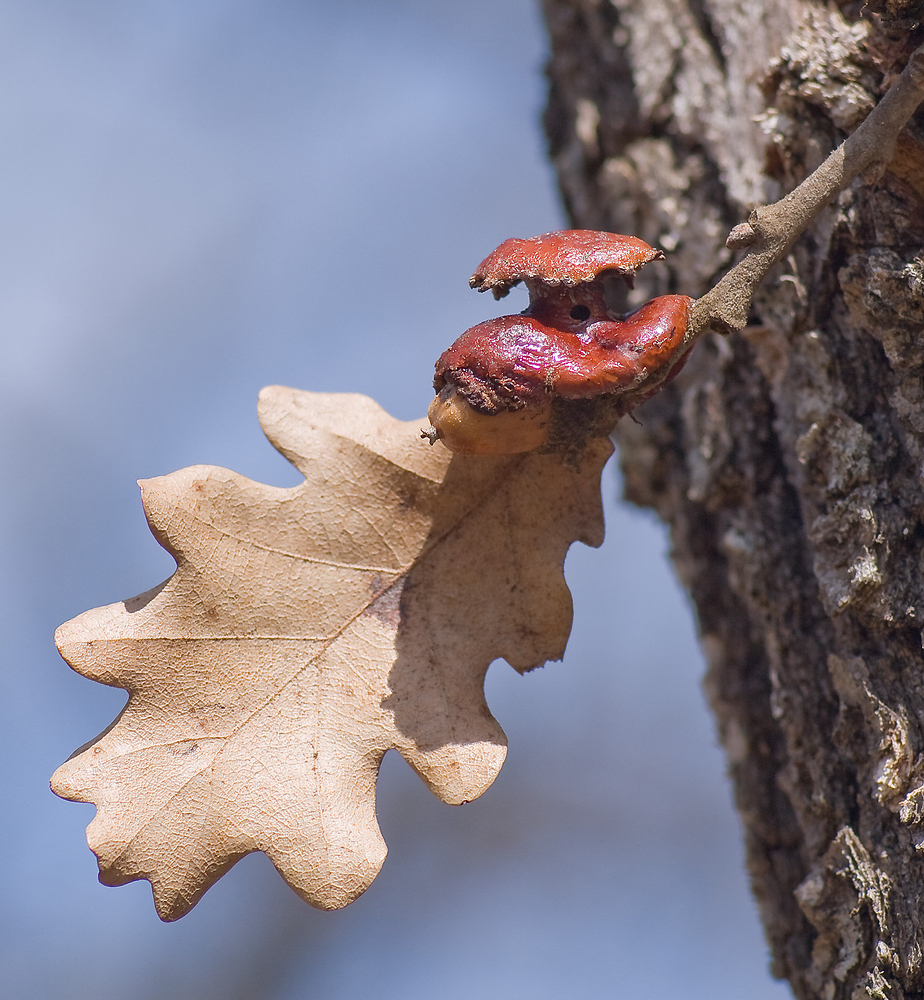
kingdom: Animalia
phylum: Arthropoda
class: Insecta
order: Hymenoptera
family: Cynipidae
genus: Andricus
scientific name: Andricus dentimitratus
